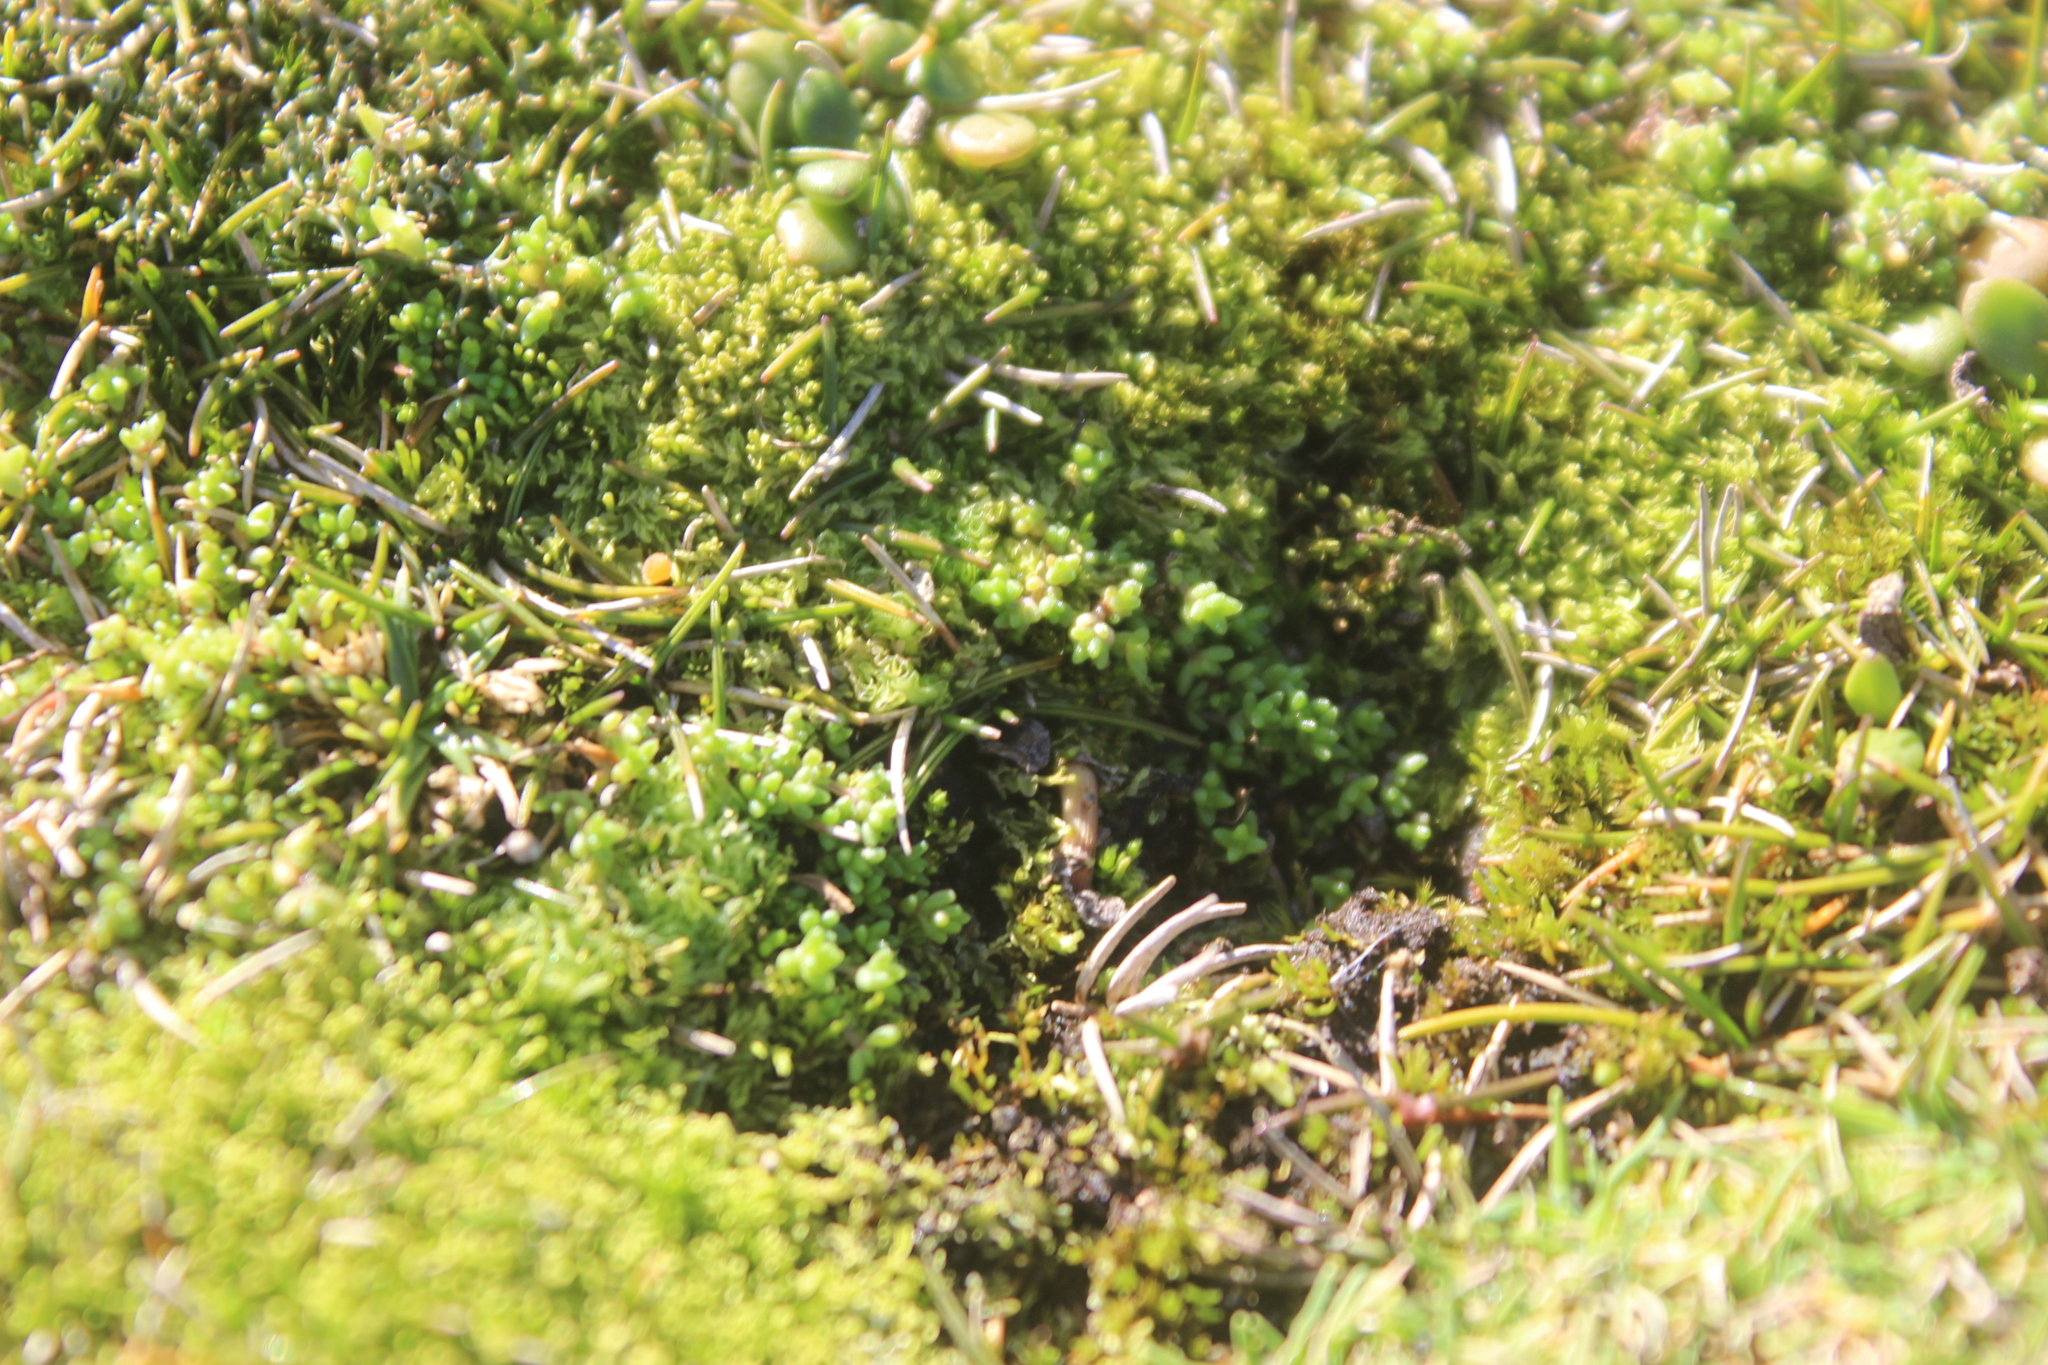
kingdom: Plantae
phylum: Tracheophyta
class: Magnoliopsida
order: Saxifragales
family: Crassulaceae
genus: Crassula
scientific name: Crassula manaia
